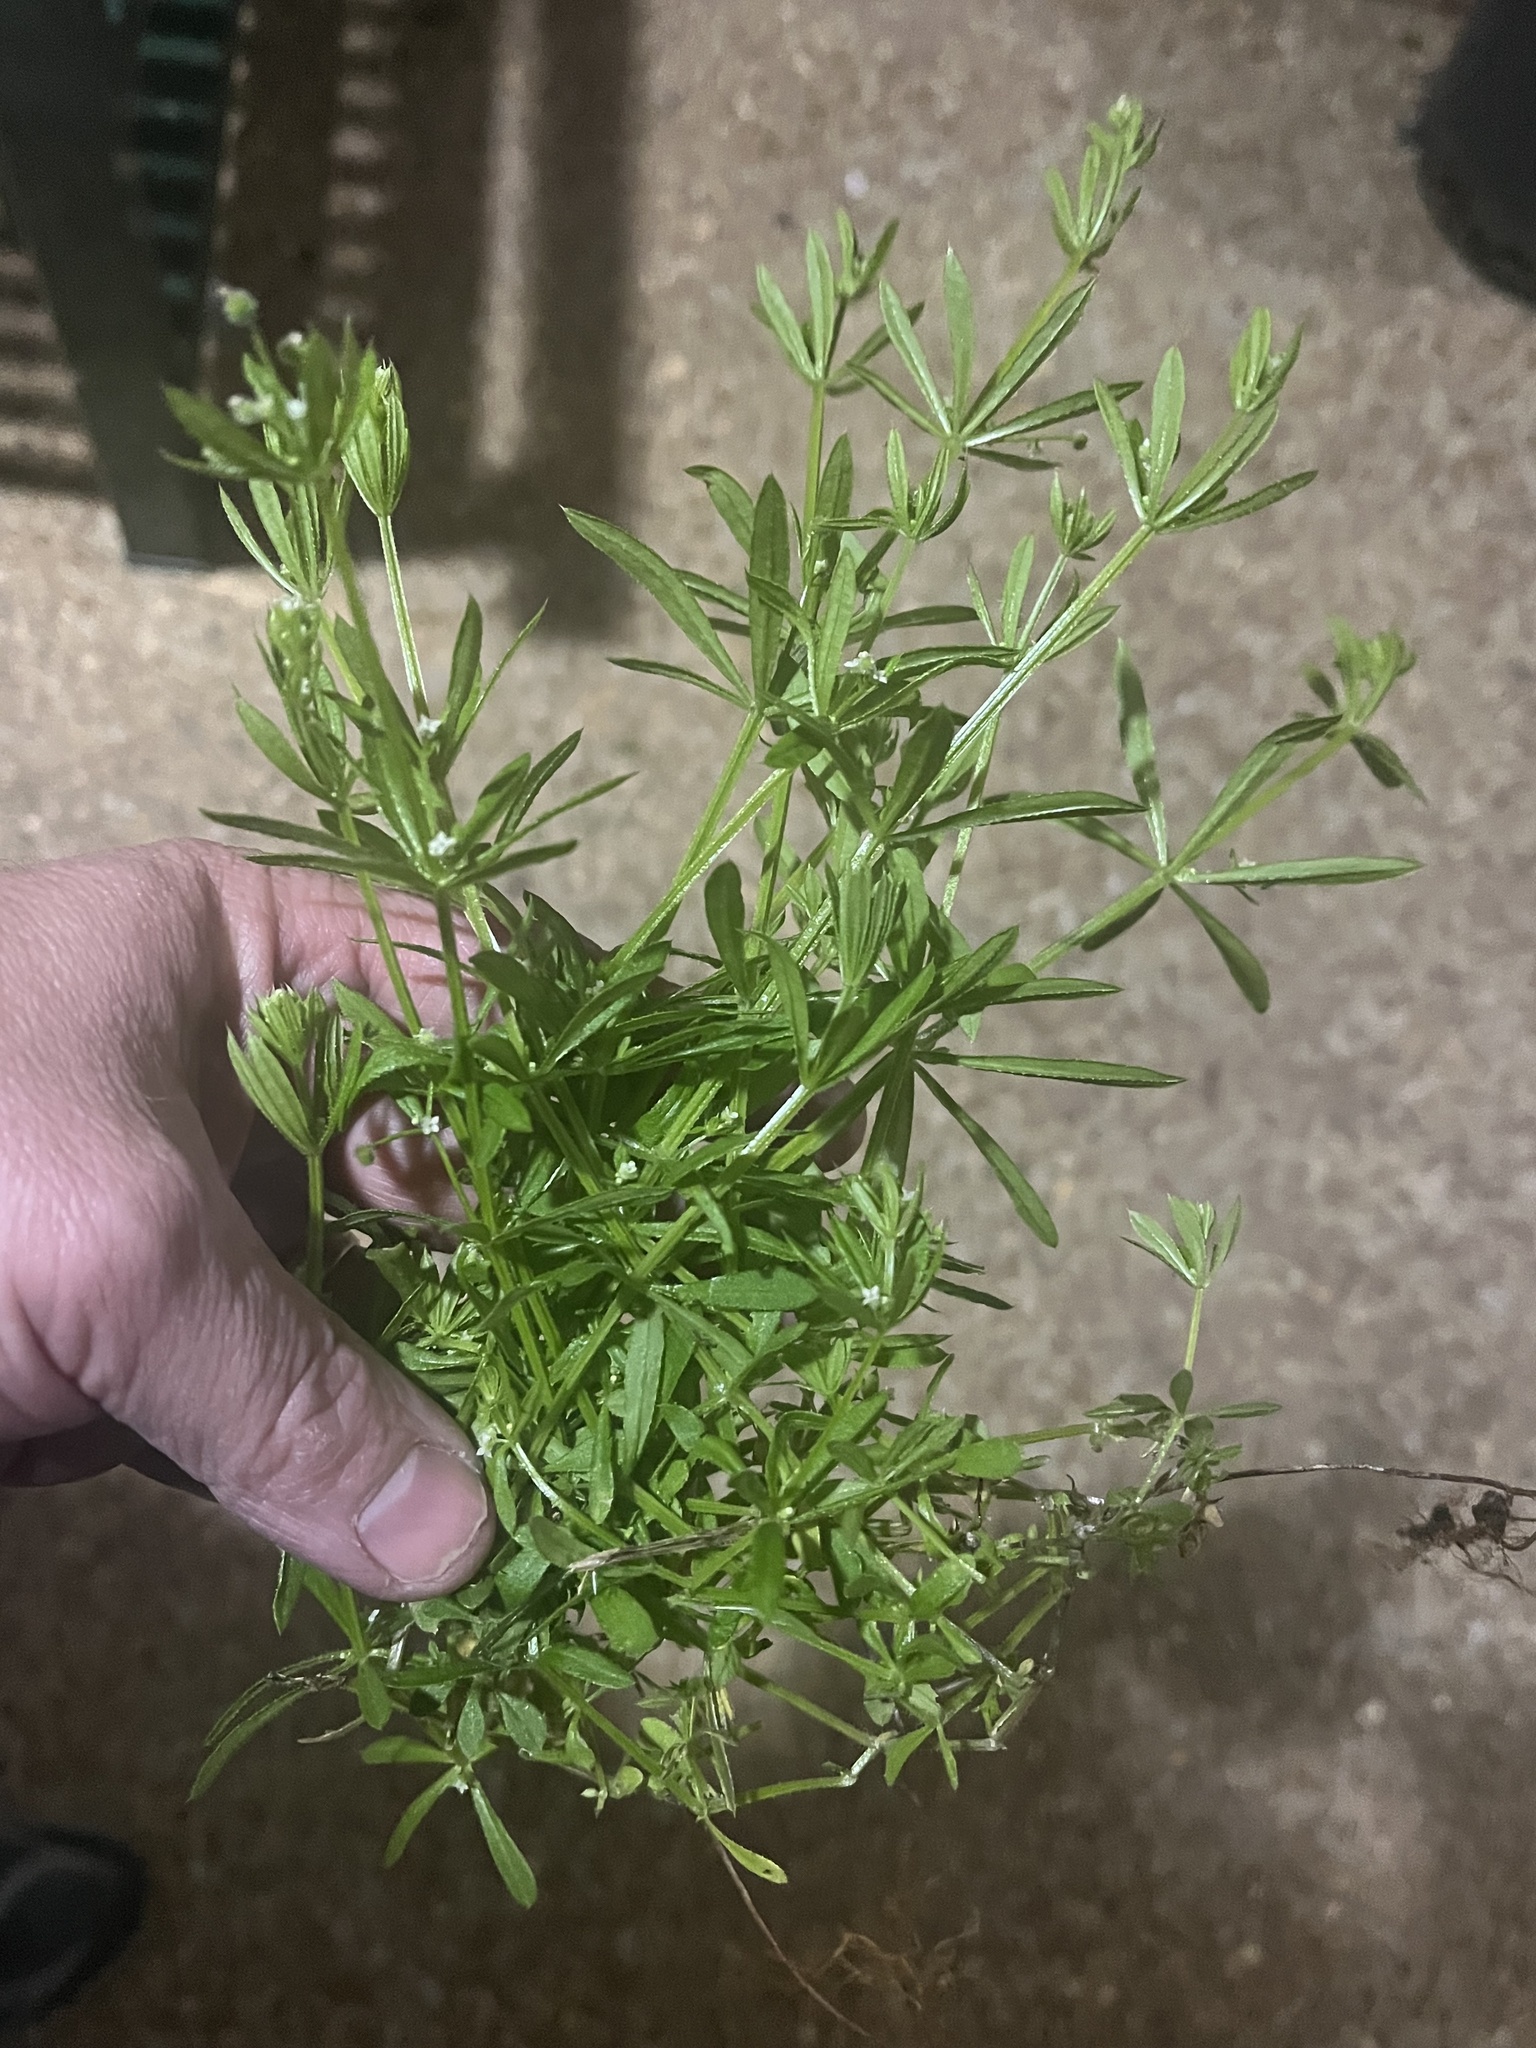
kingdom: Plantae
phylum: Tracheophyta
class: Magnoliopsida
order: Gentianales
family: Rubiaceae
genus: Galium
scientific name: Galium aparine
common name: Cleavers
